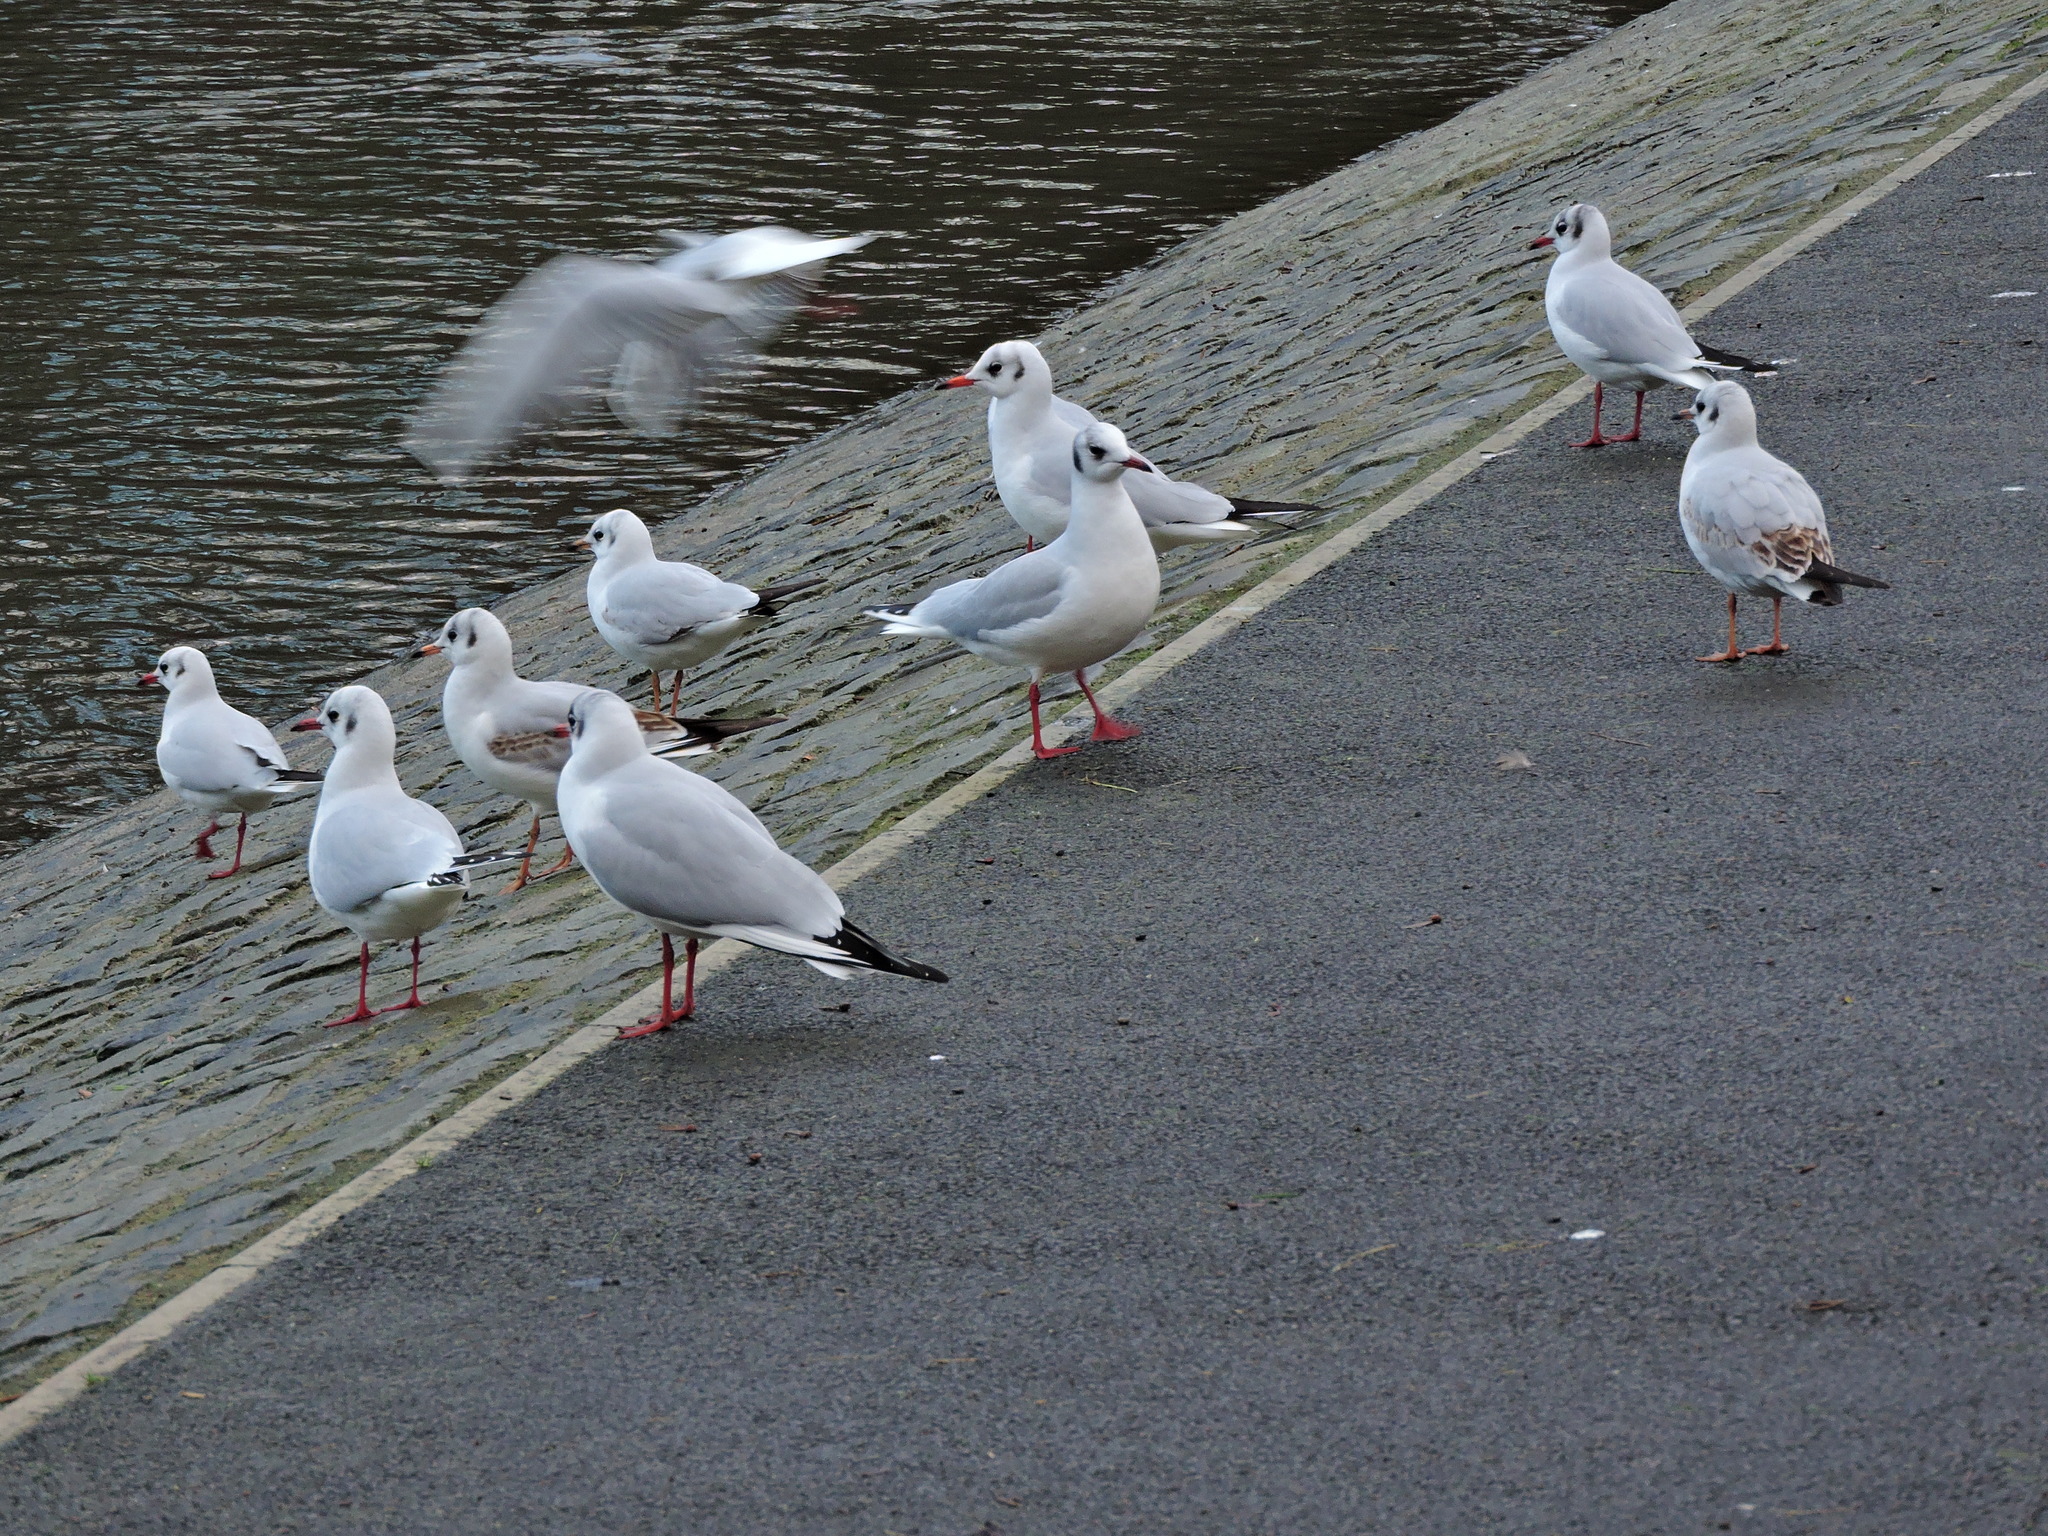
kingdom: Animalia
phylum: Chordata
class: Aves
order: Charadriiformes
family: Laridae
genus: Chroicocephalus
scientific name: Chroicocephalus ridibundus
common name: Black-headed gull
